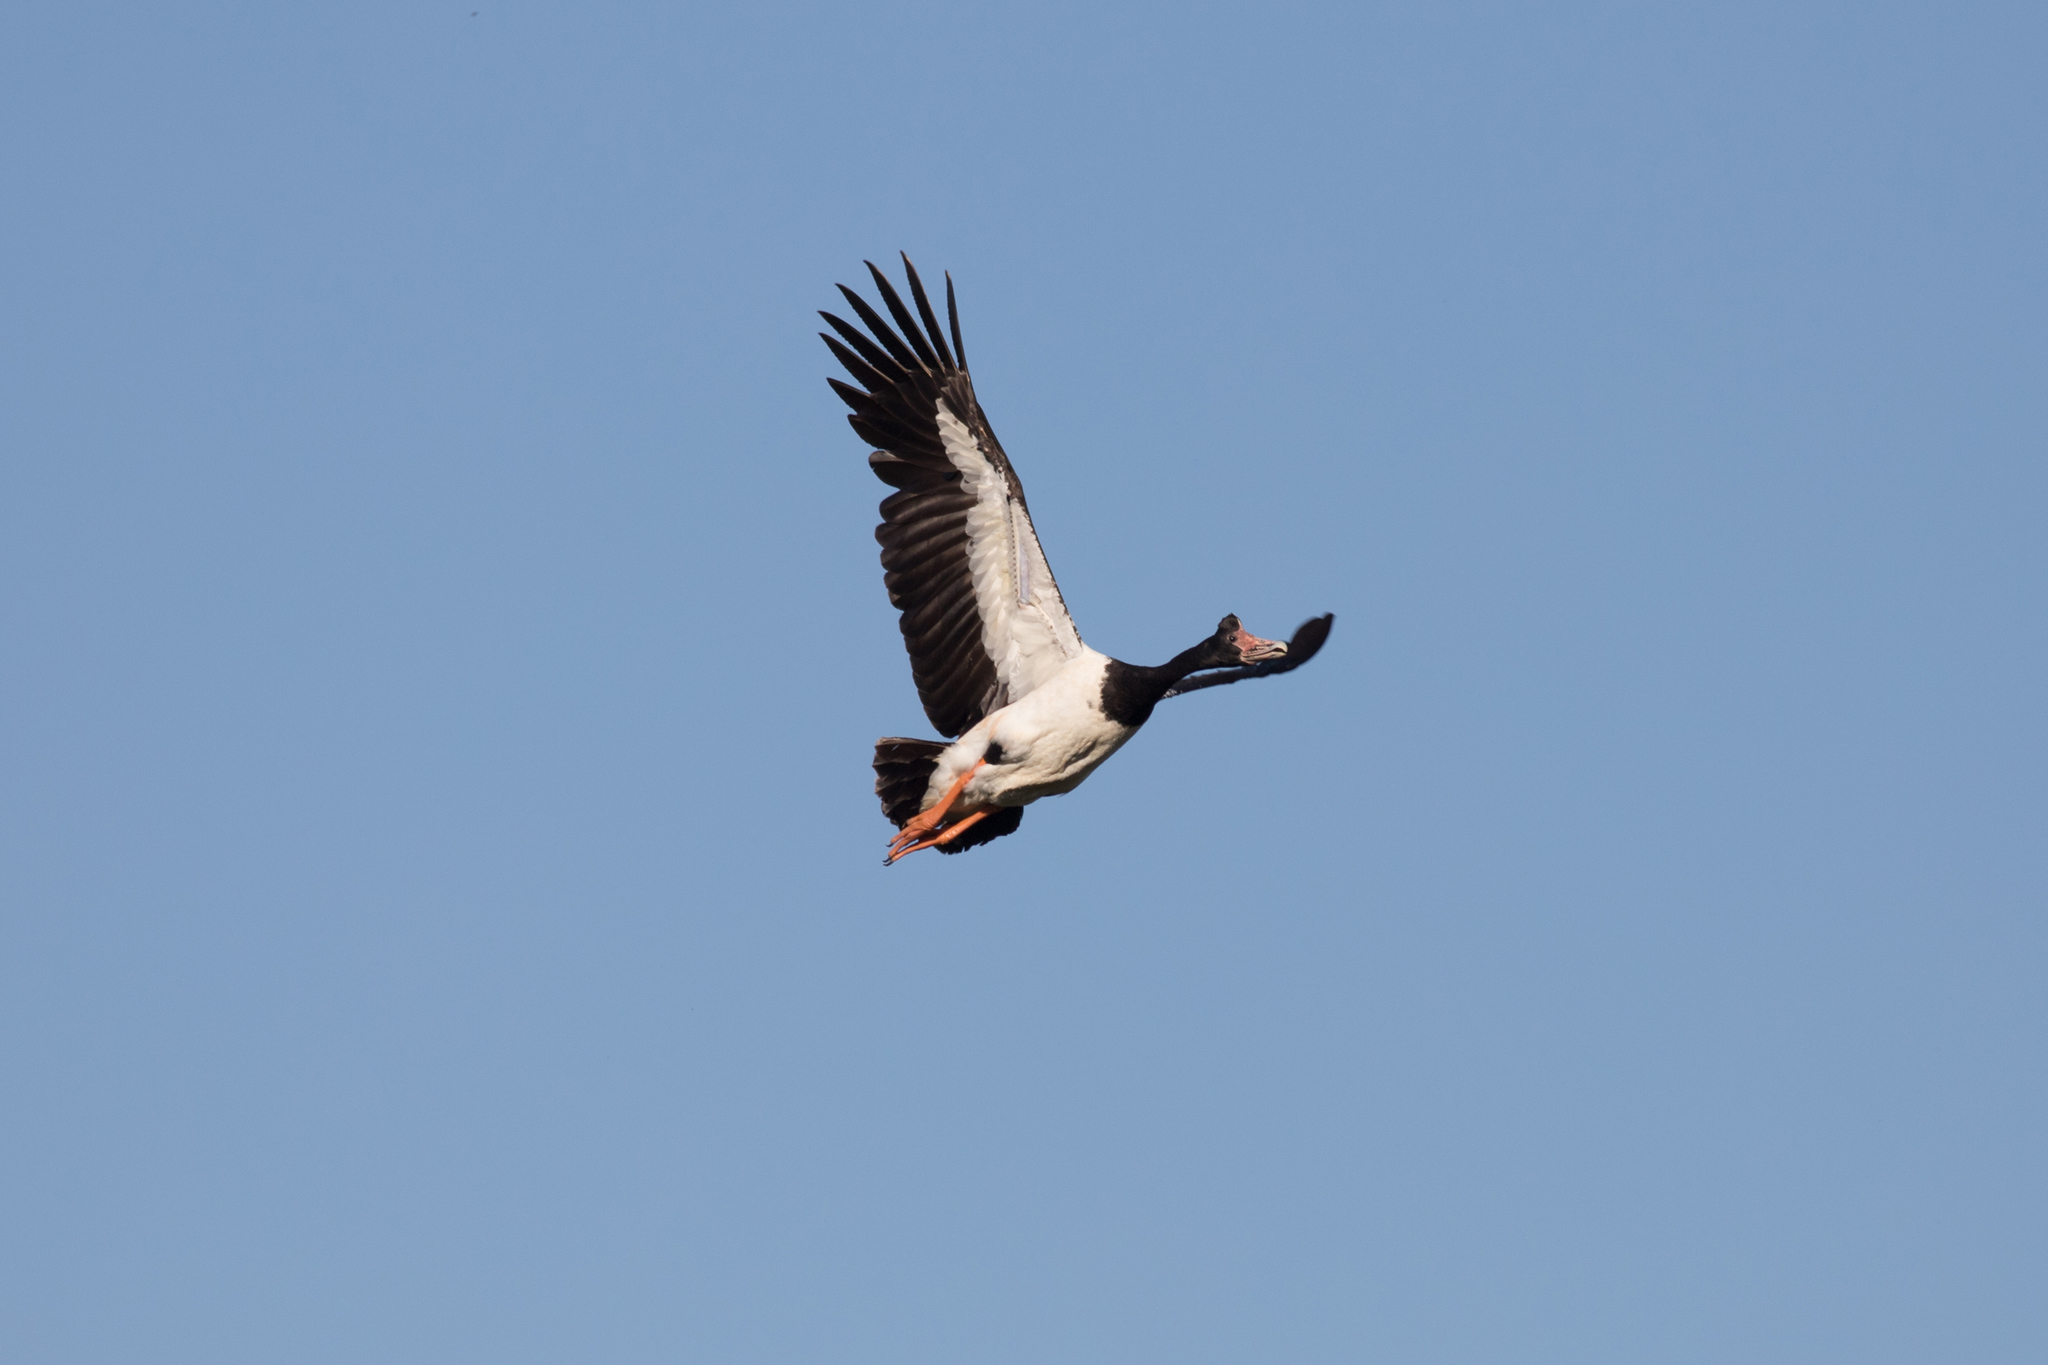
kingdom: Animalia
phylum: Chordata
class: Aves
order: Anseriformes
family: Anseranatidae
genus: Anseranas
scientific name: Anseranas semipalmata
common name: Magpie goose
